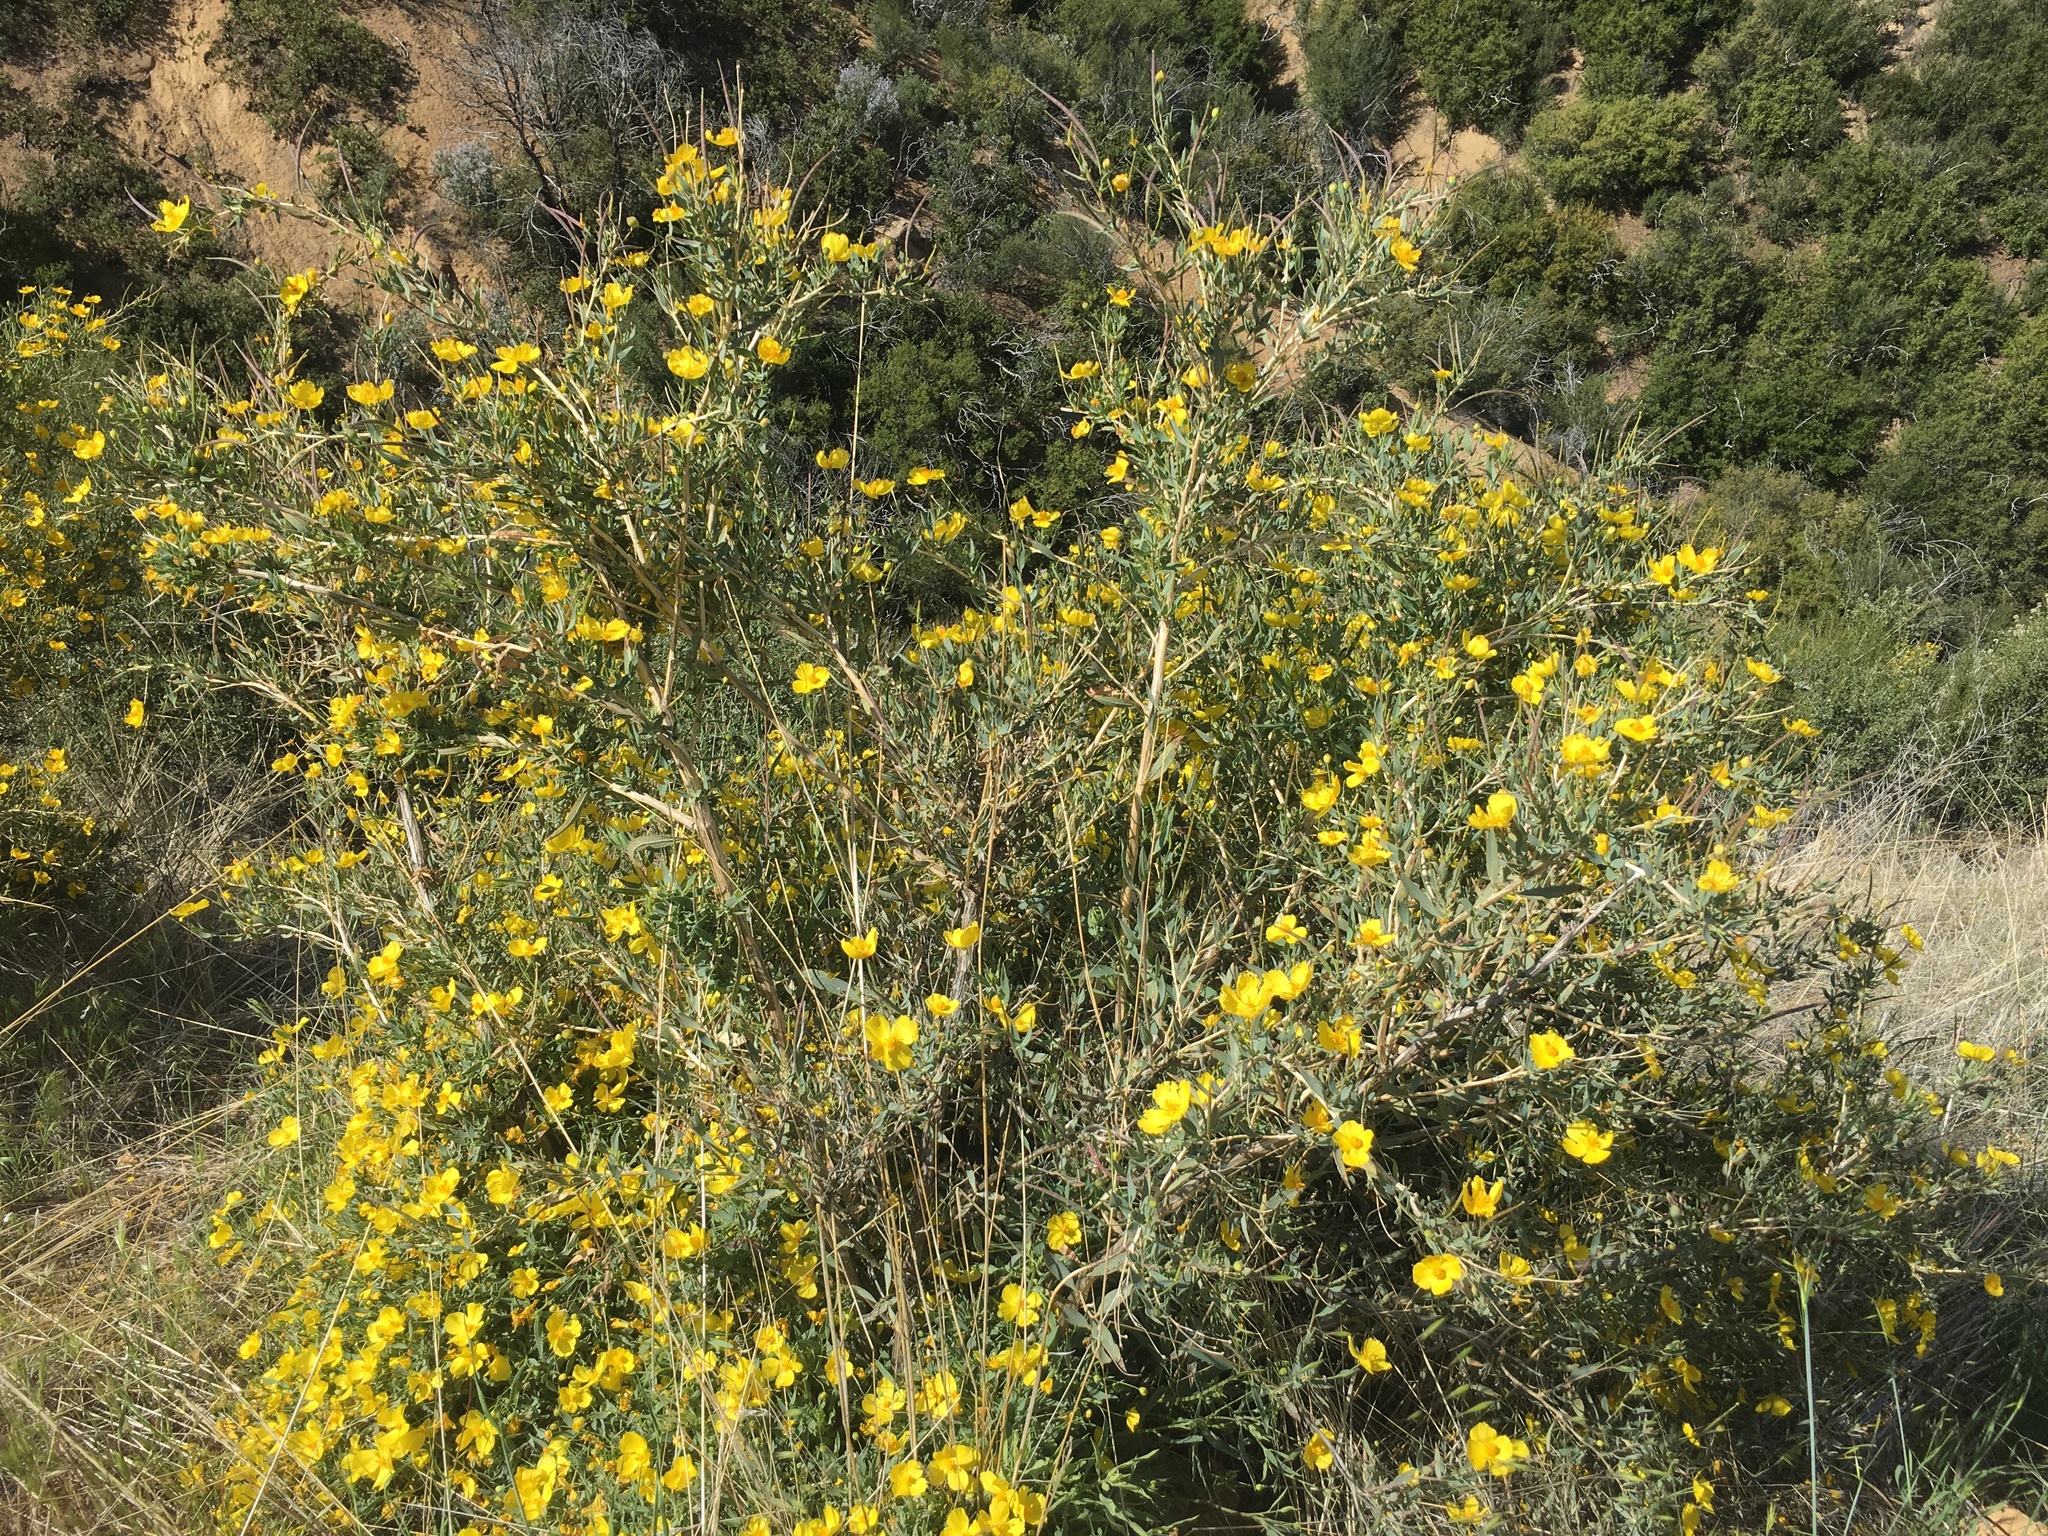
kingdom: Plantae
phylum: Tracheophyta
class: Magnoliopsida
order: Ranunculales
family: Papaveraceae
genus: Dendromecon
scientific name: Dendromecon rigida
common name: Tree poppy
